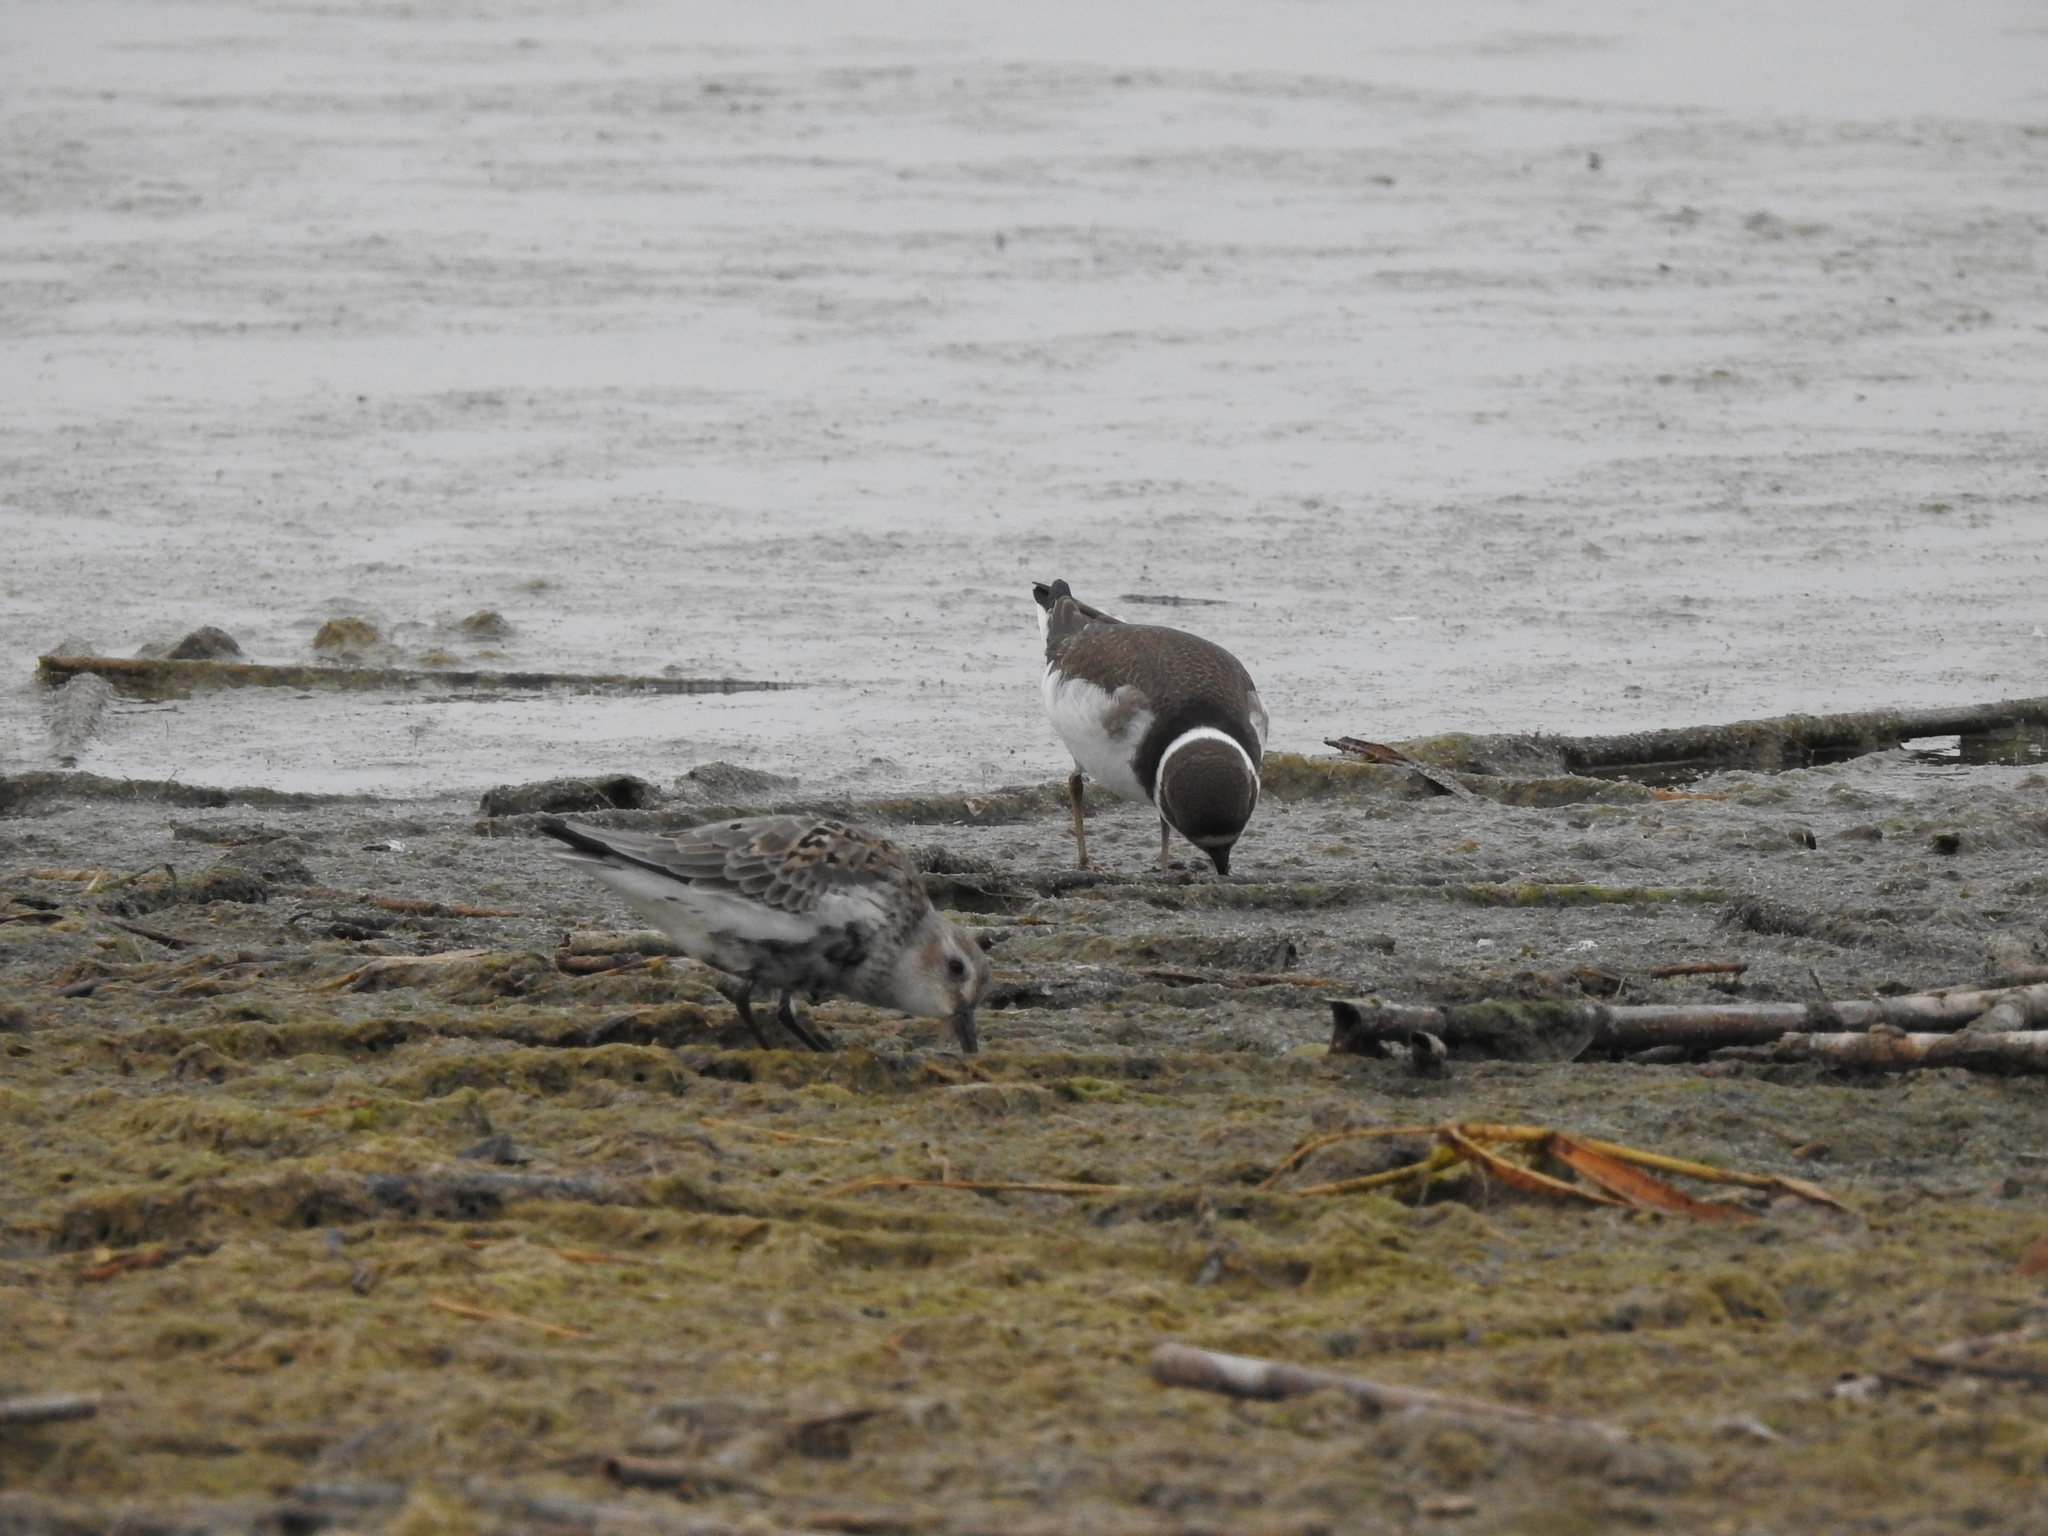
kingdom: Animalia
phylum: Chordata
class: Aves
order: Charadriiformes
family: Scolopacidae
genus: Calidris
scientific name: Calidris alpina
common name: Dunlin
